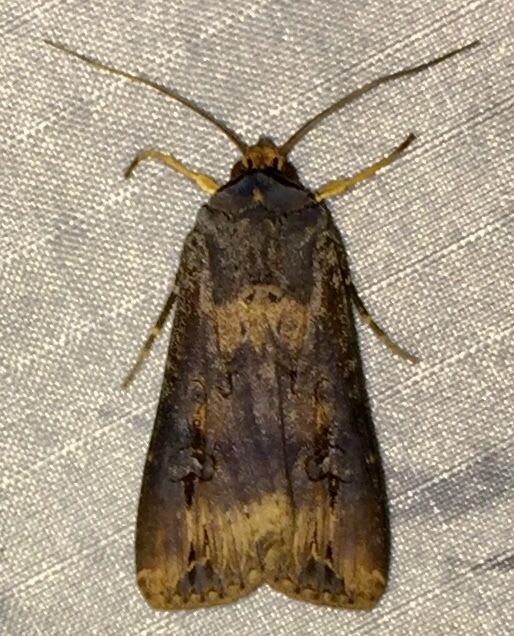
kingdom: Animalia
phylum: Arthropoda
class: Insecta
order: Lepidoptera
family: Noctuidae
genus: Agrotis
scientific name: Agrotis ipsilon
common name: Dark sword-grass
